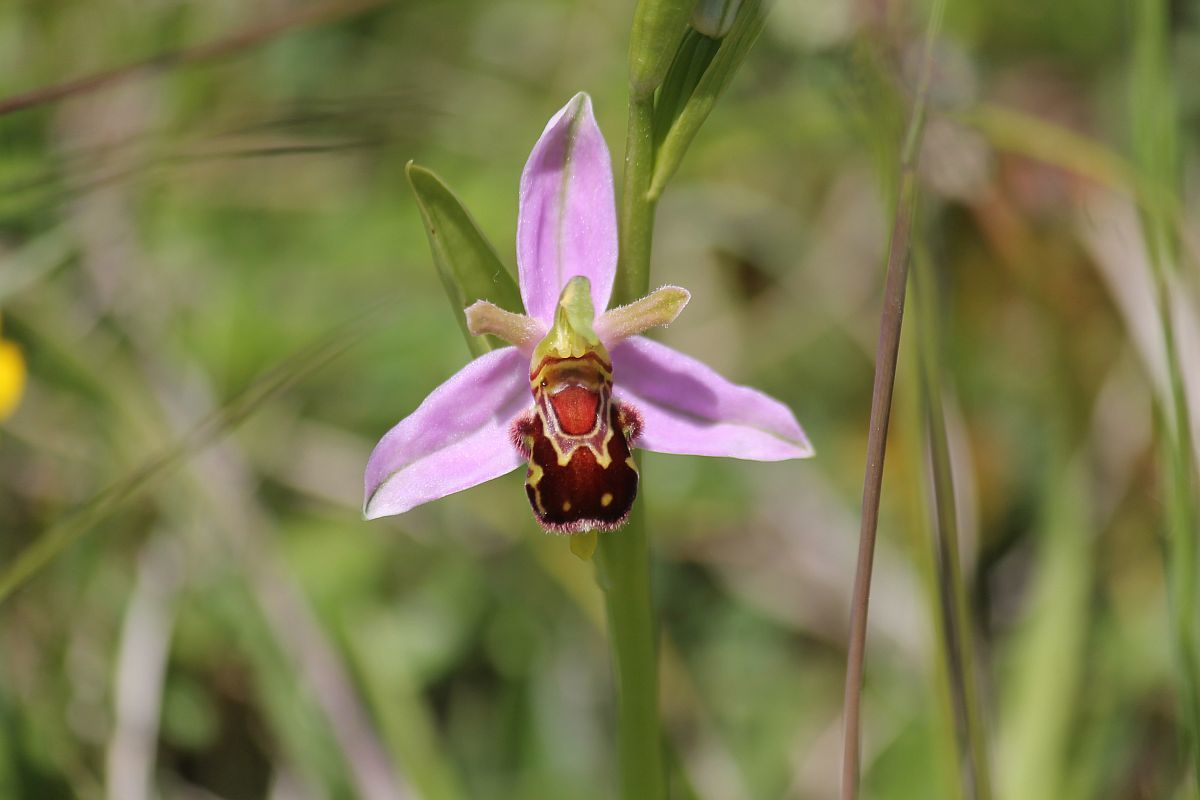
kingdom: Plantae
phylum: Tracheophyta
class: Liliopsida
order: Asparagales
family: Orchidaceae
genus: Ophrys
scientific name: Ophrys apifera
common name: Bee orchid
